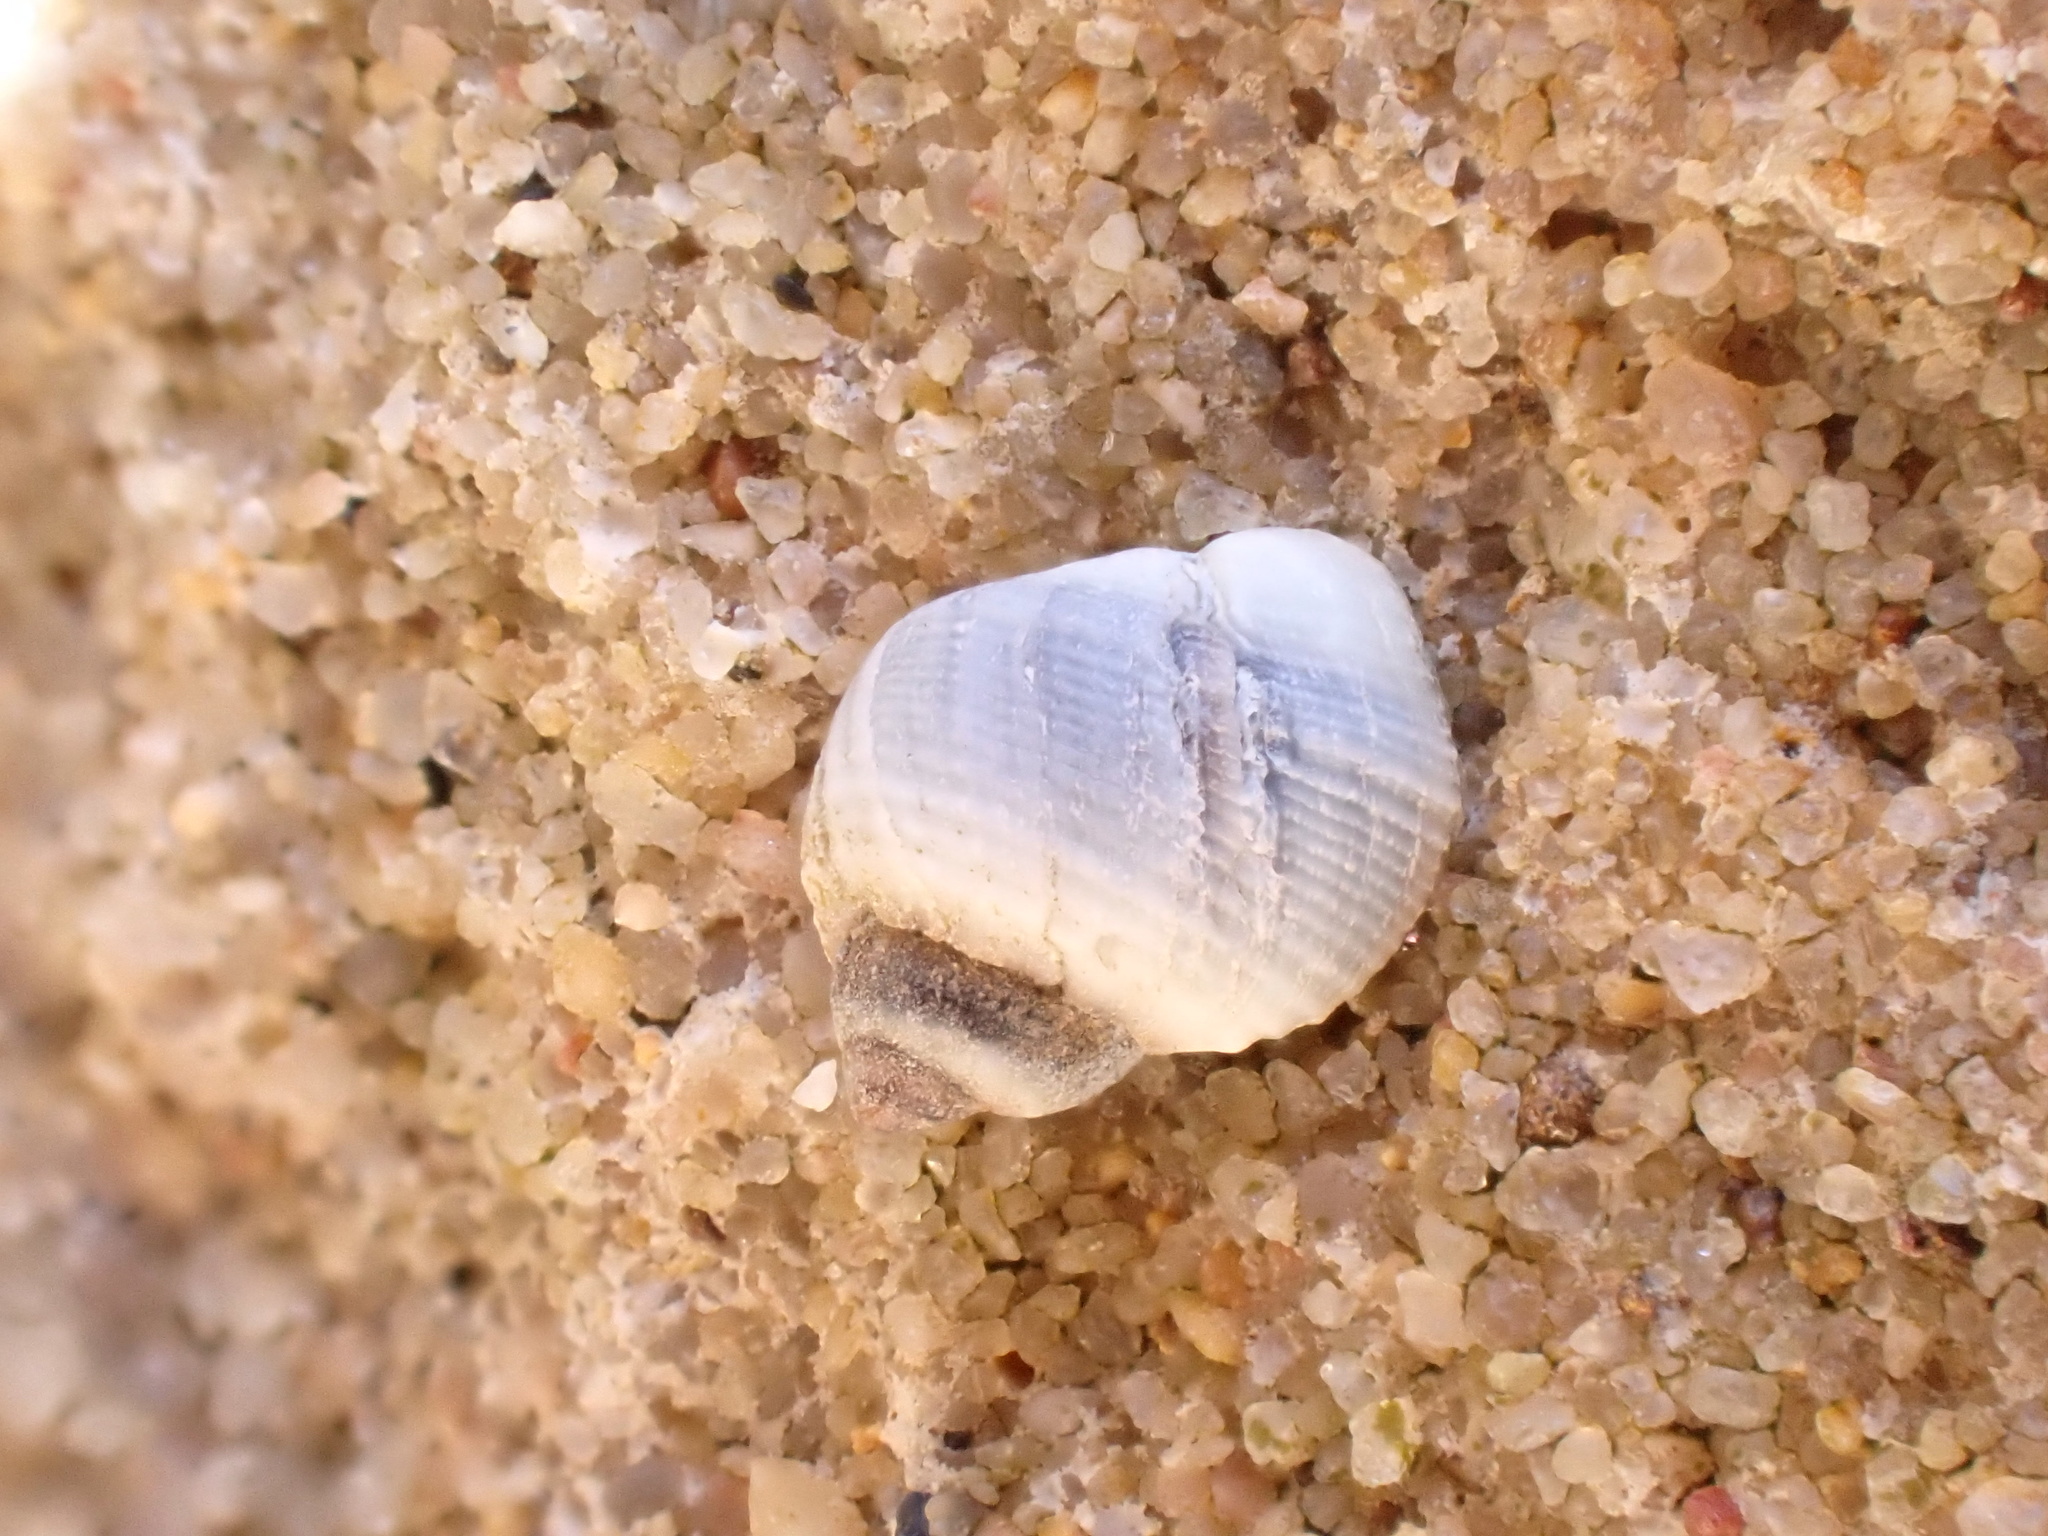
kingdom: Animalia
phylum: Mollusca
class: Gastropoda
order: Littorinimorpha
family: Littorinidae
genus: Afrolittorina
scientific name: Afrolittorina africana
